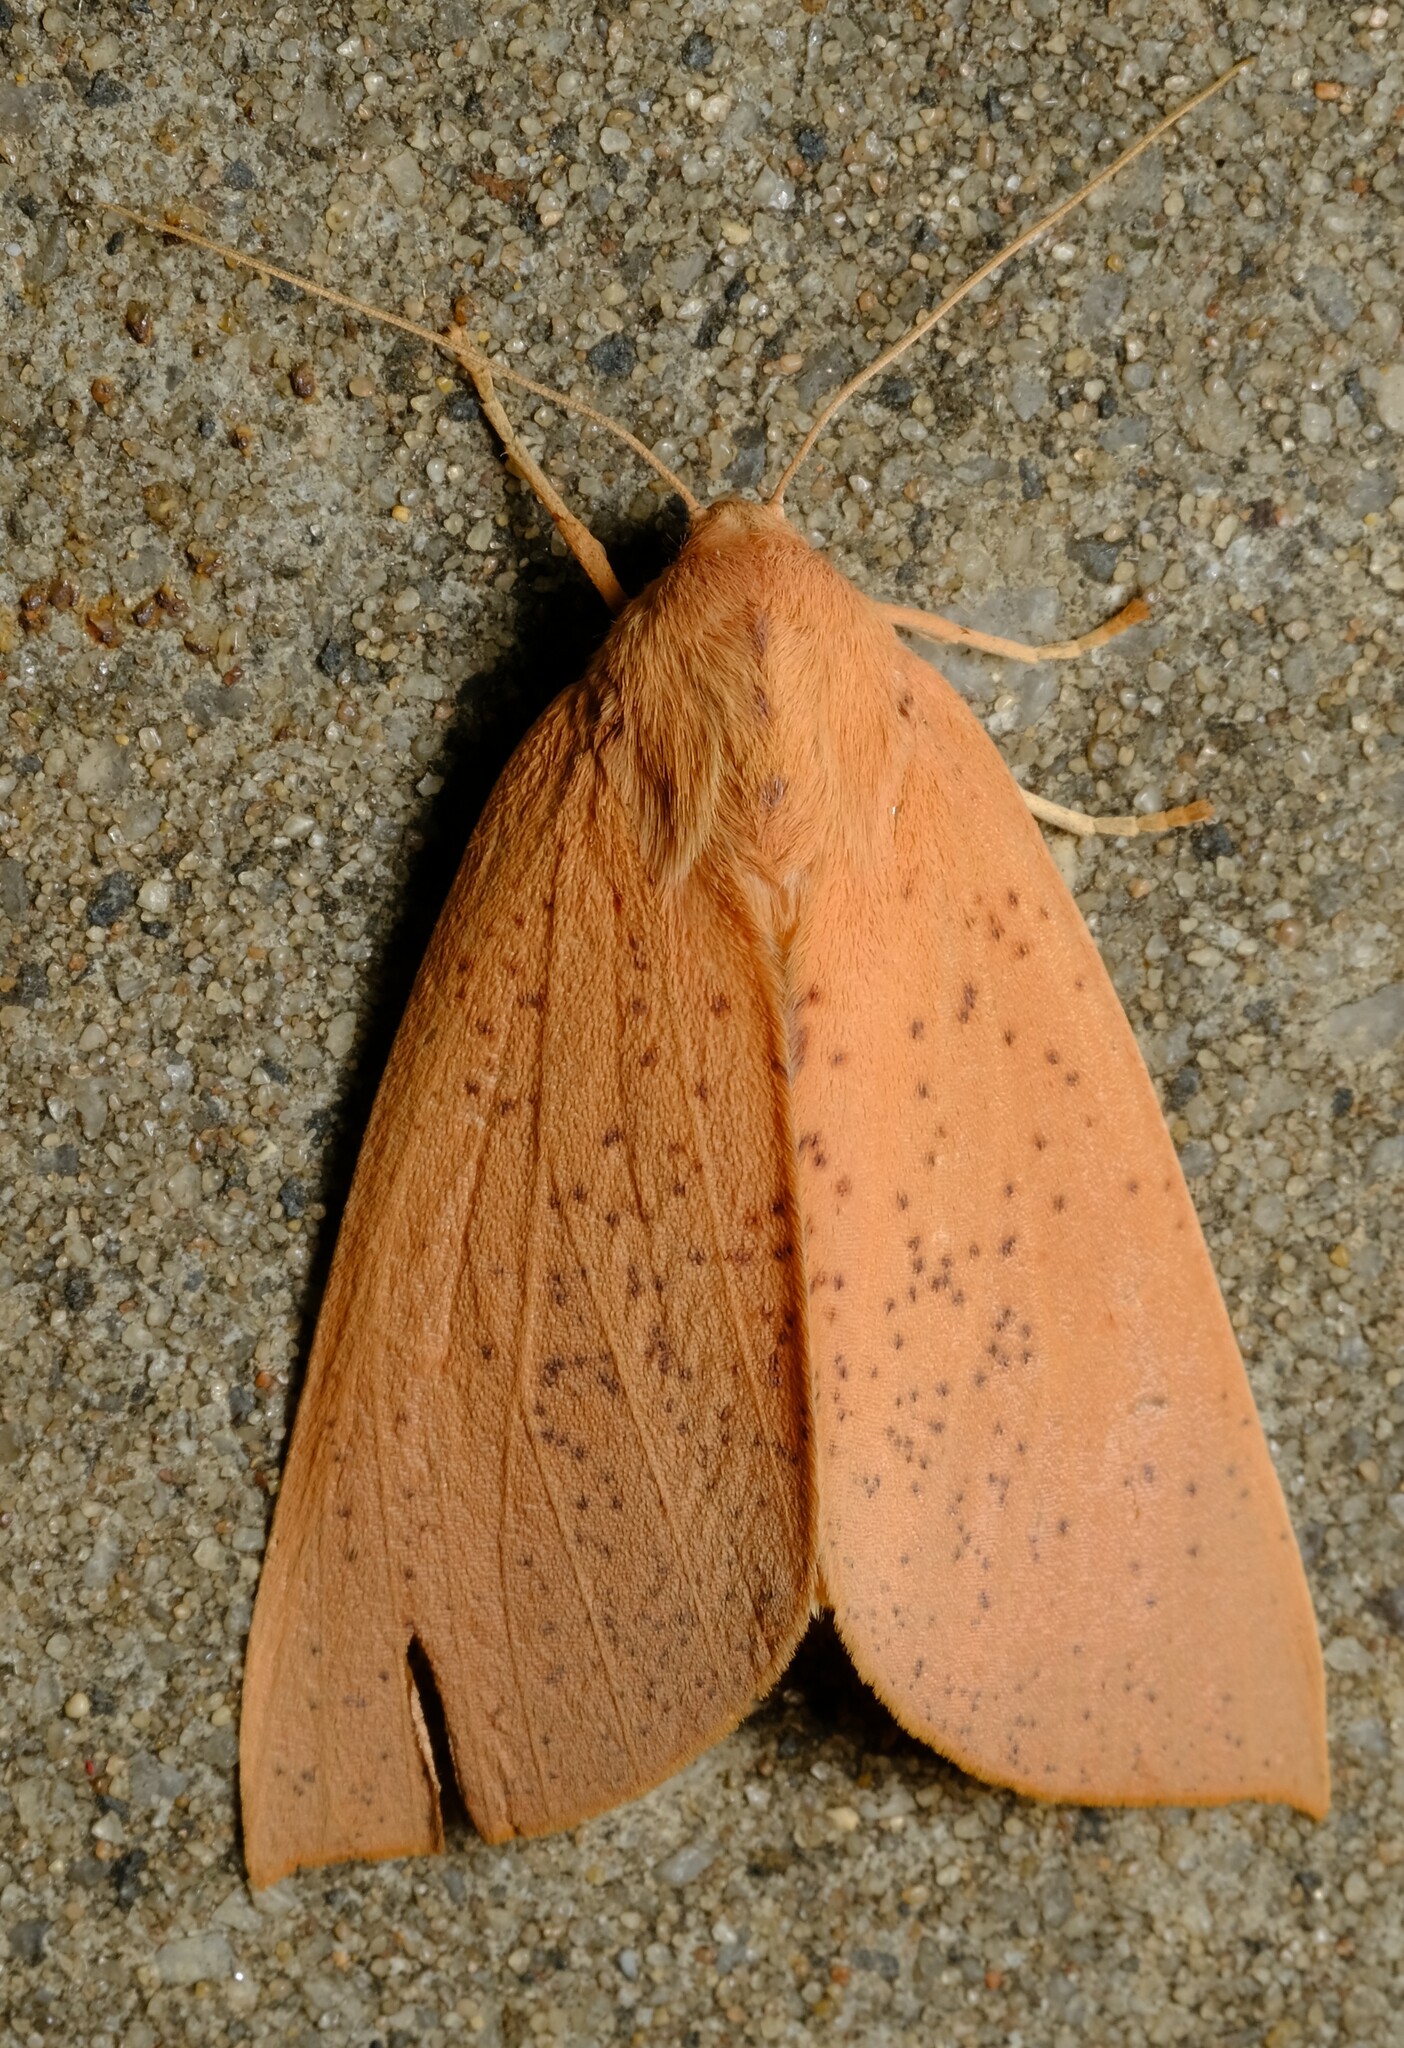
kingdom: Animalia
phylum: Arthropoda
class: Insecta
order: Lepidoptera
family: Geometridae
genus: Plesanemma
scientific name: Plesanemma fucata
